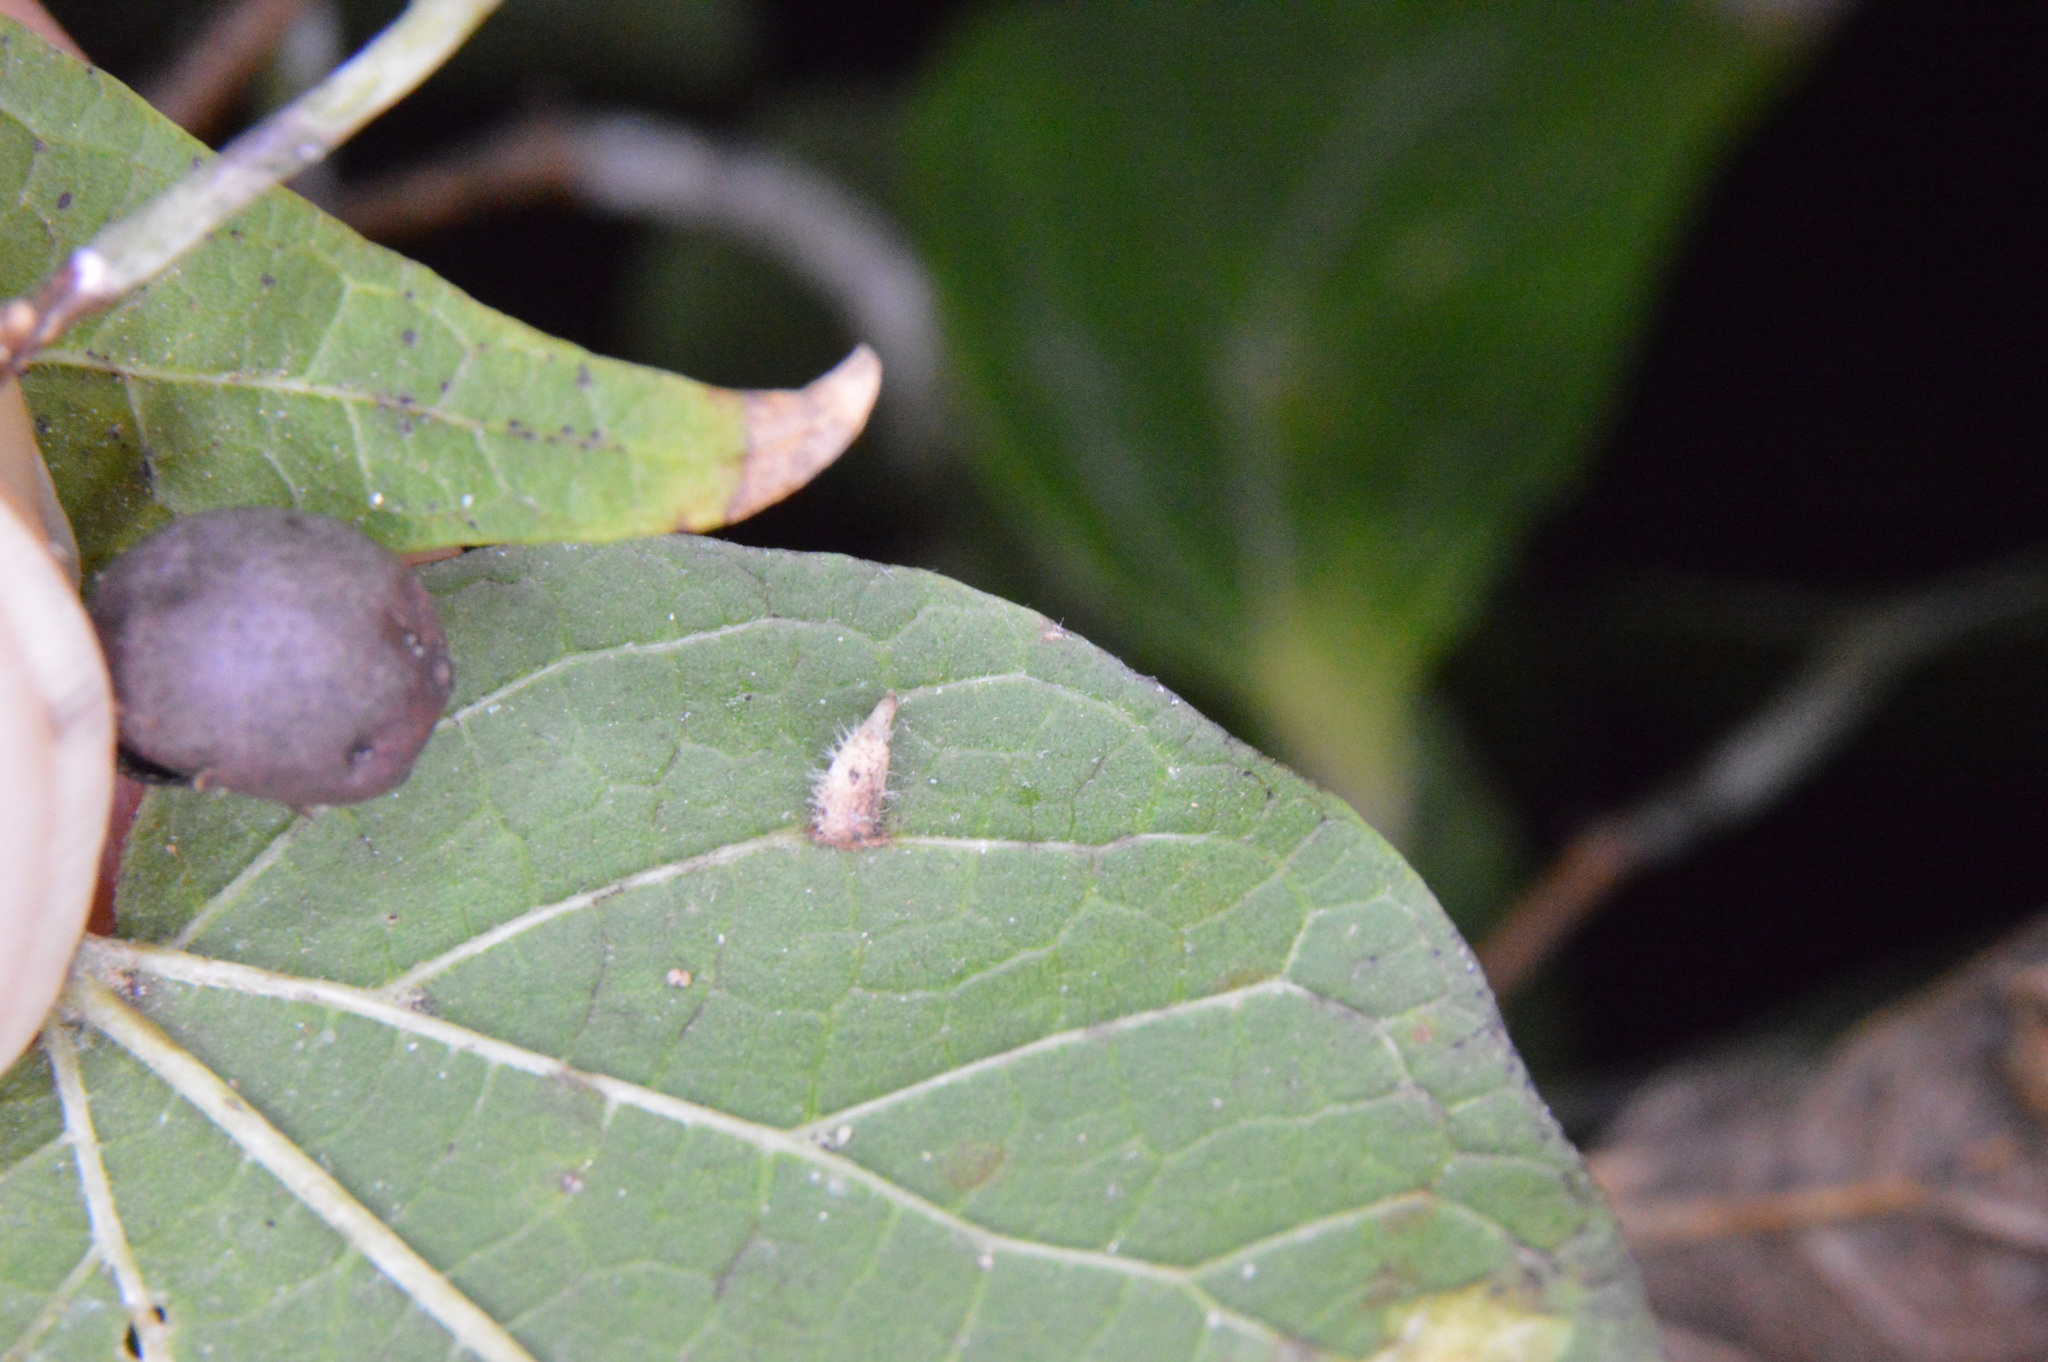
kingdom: Animalia
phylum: Arthropoda
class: Insecta
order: Diptera
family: Cecidomyiidae
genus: Celticecis
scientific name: Celticecis supina
